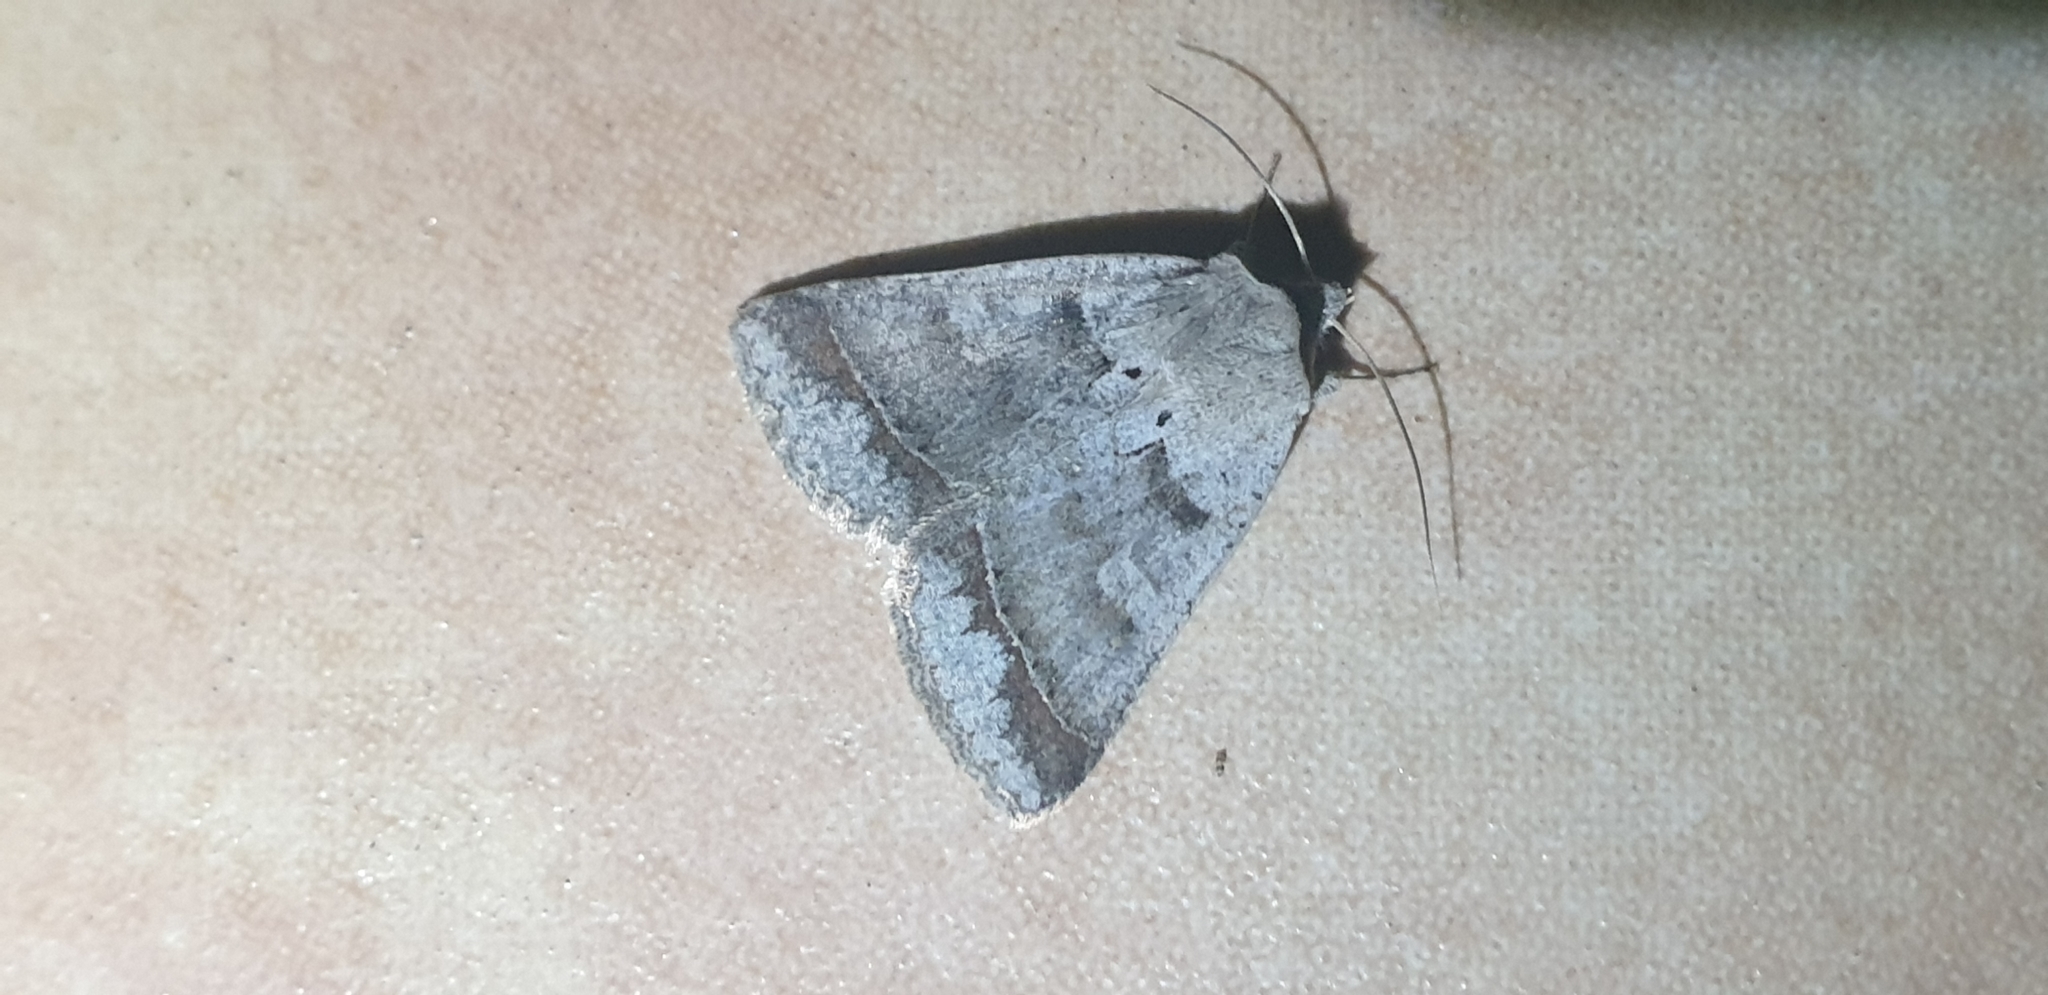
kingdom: Animalia
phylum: Arthropoda
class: Insecta
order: Lepidoptera
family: Erebidae
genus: Pantydia
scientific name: Pantydia sparsa
